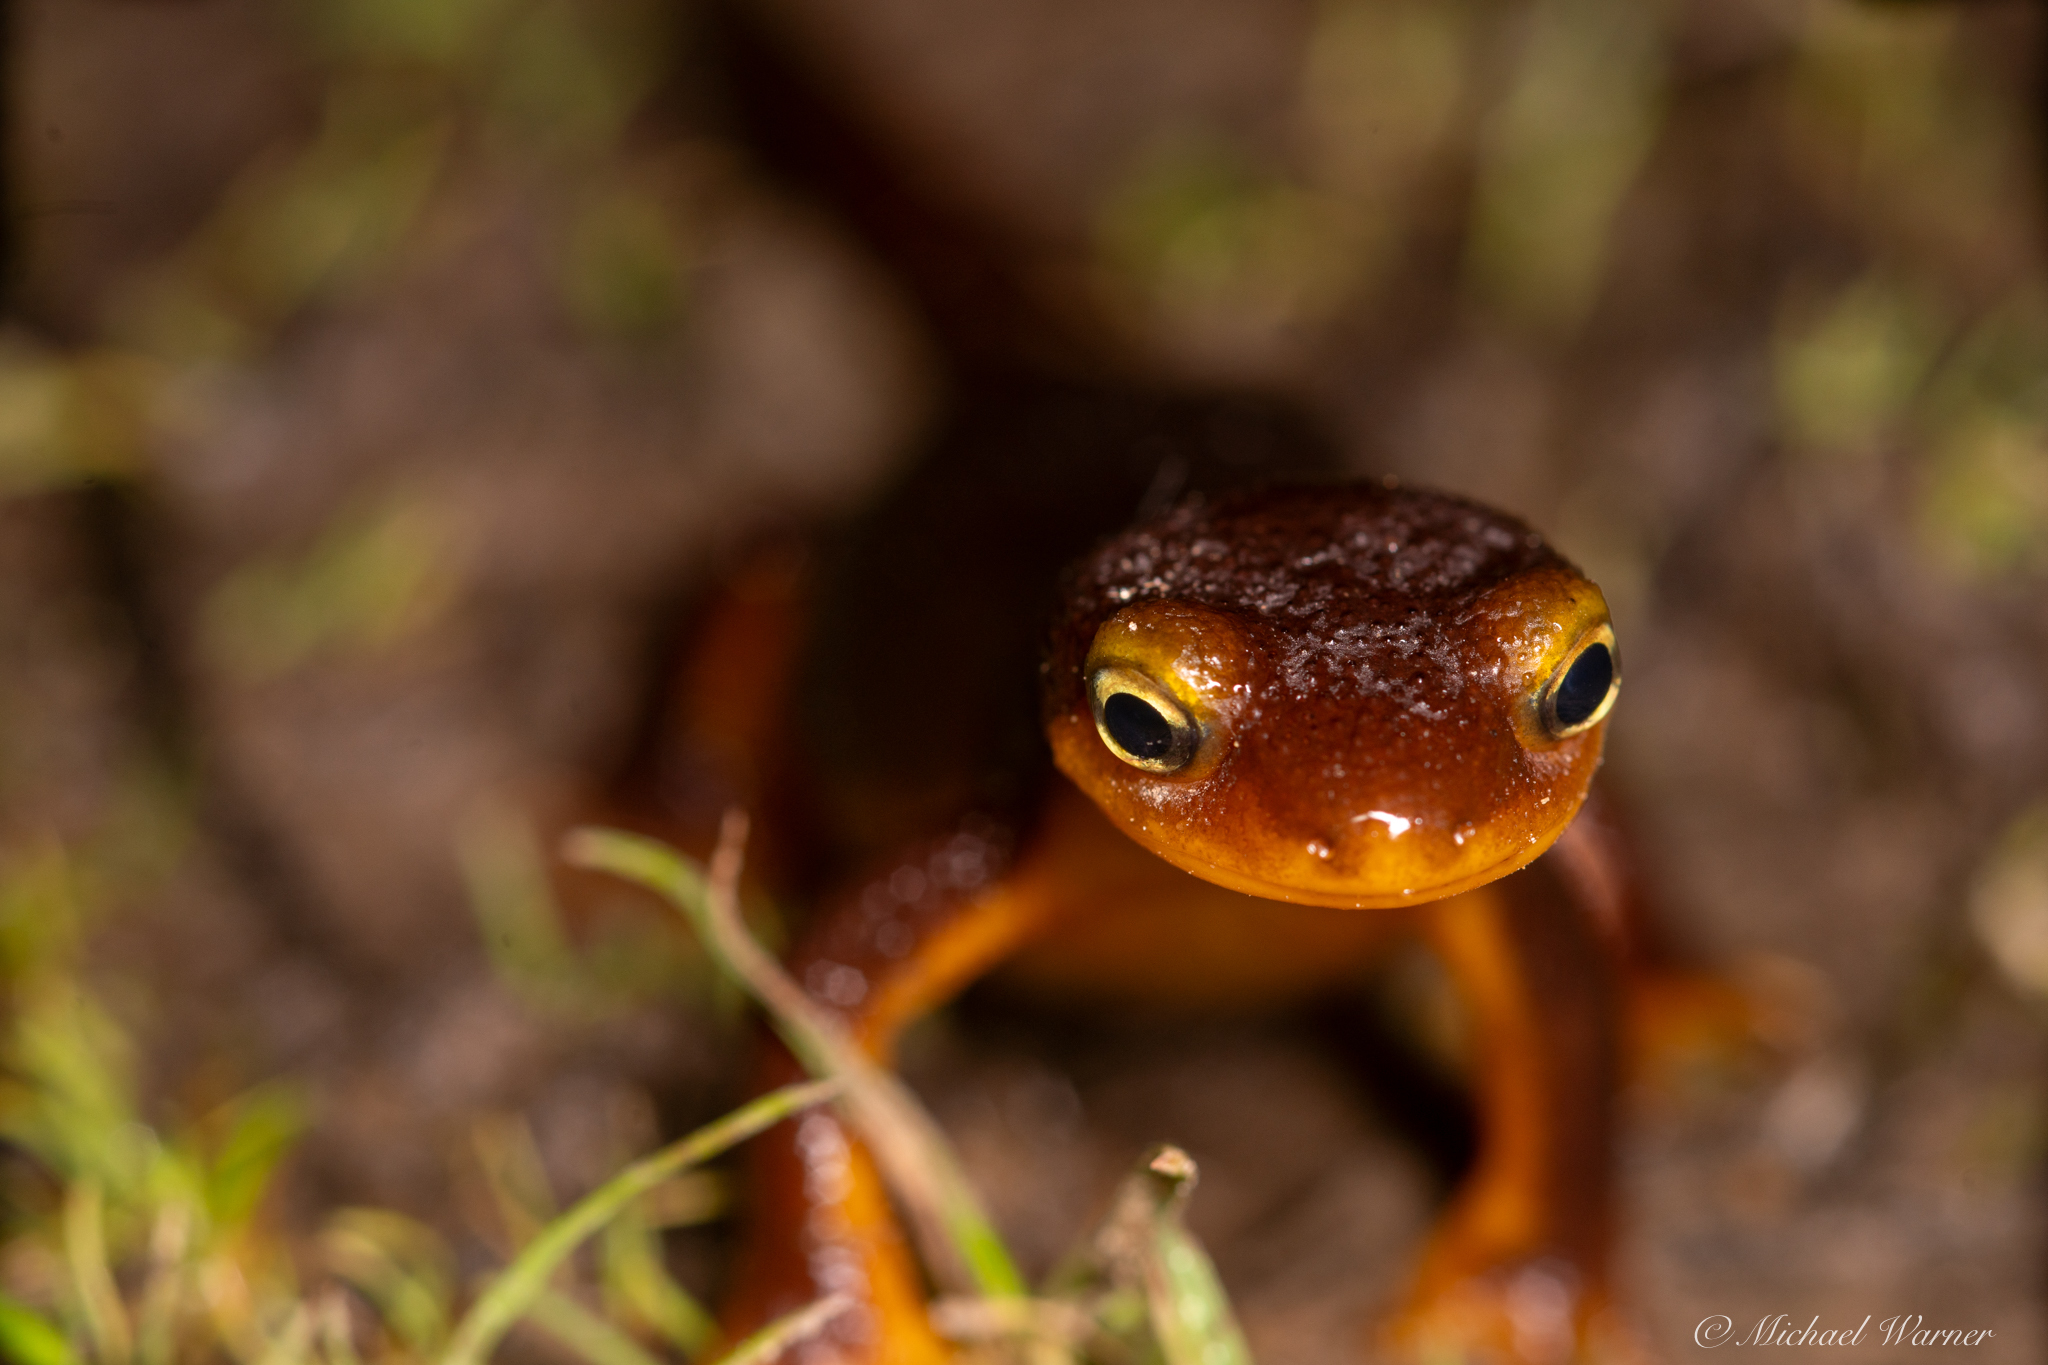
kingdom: Animalia
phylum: Chordata
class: Amphibia
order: Caudata
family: Salamandridae
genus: Taricha
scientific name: Taricha torosa
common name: California newt
